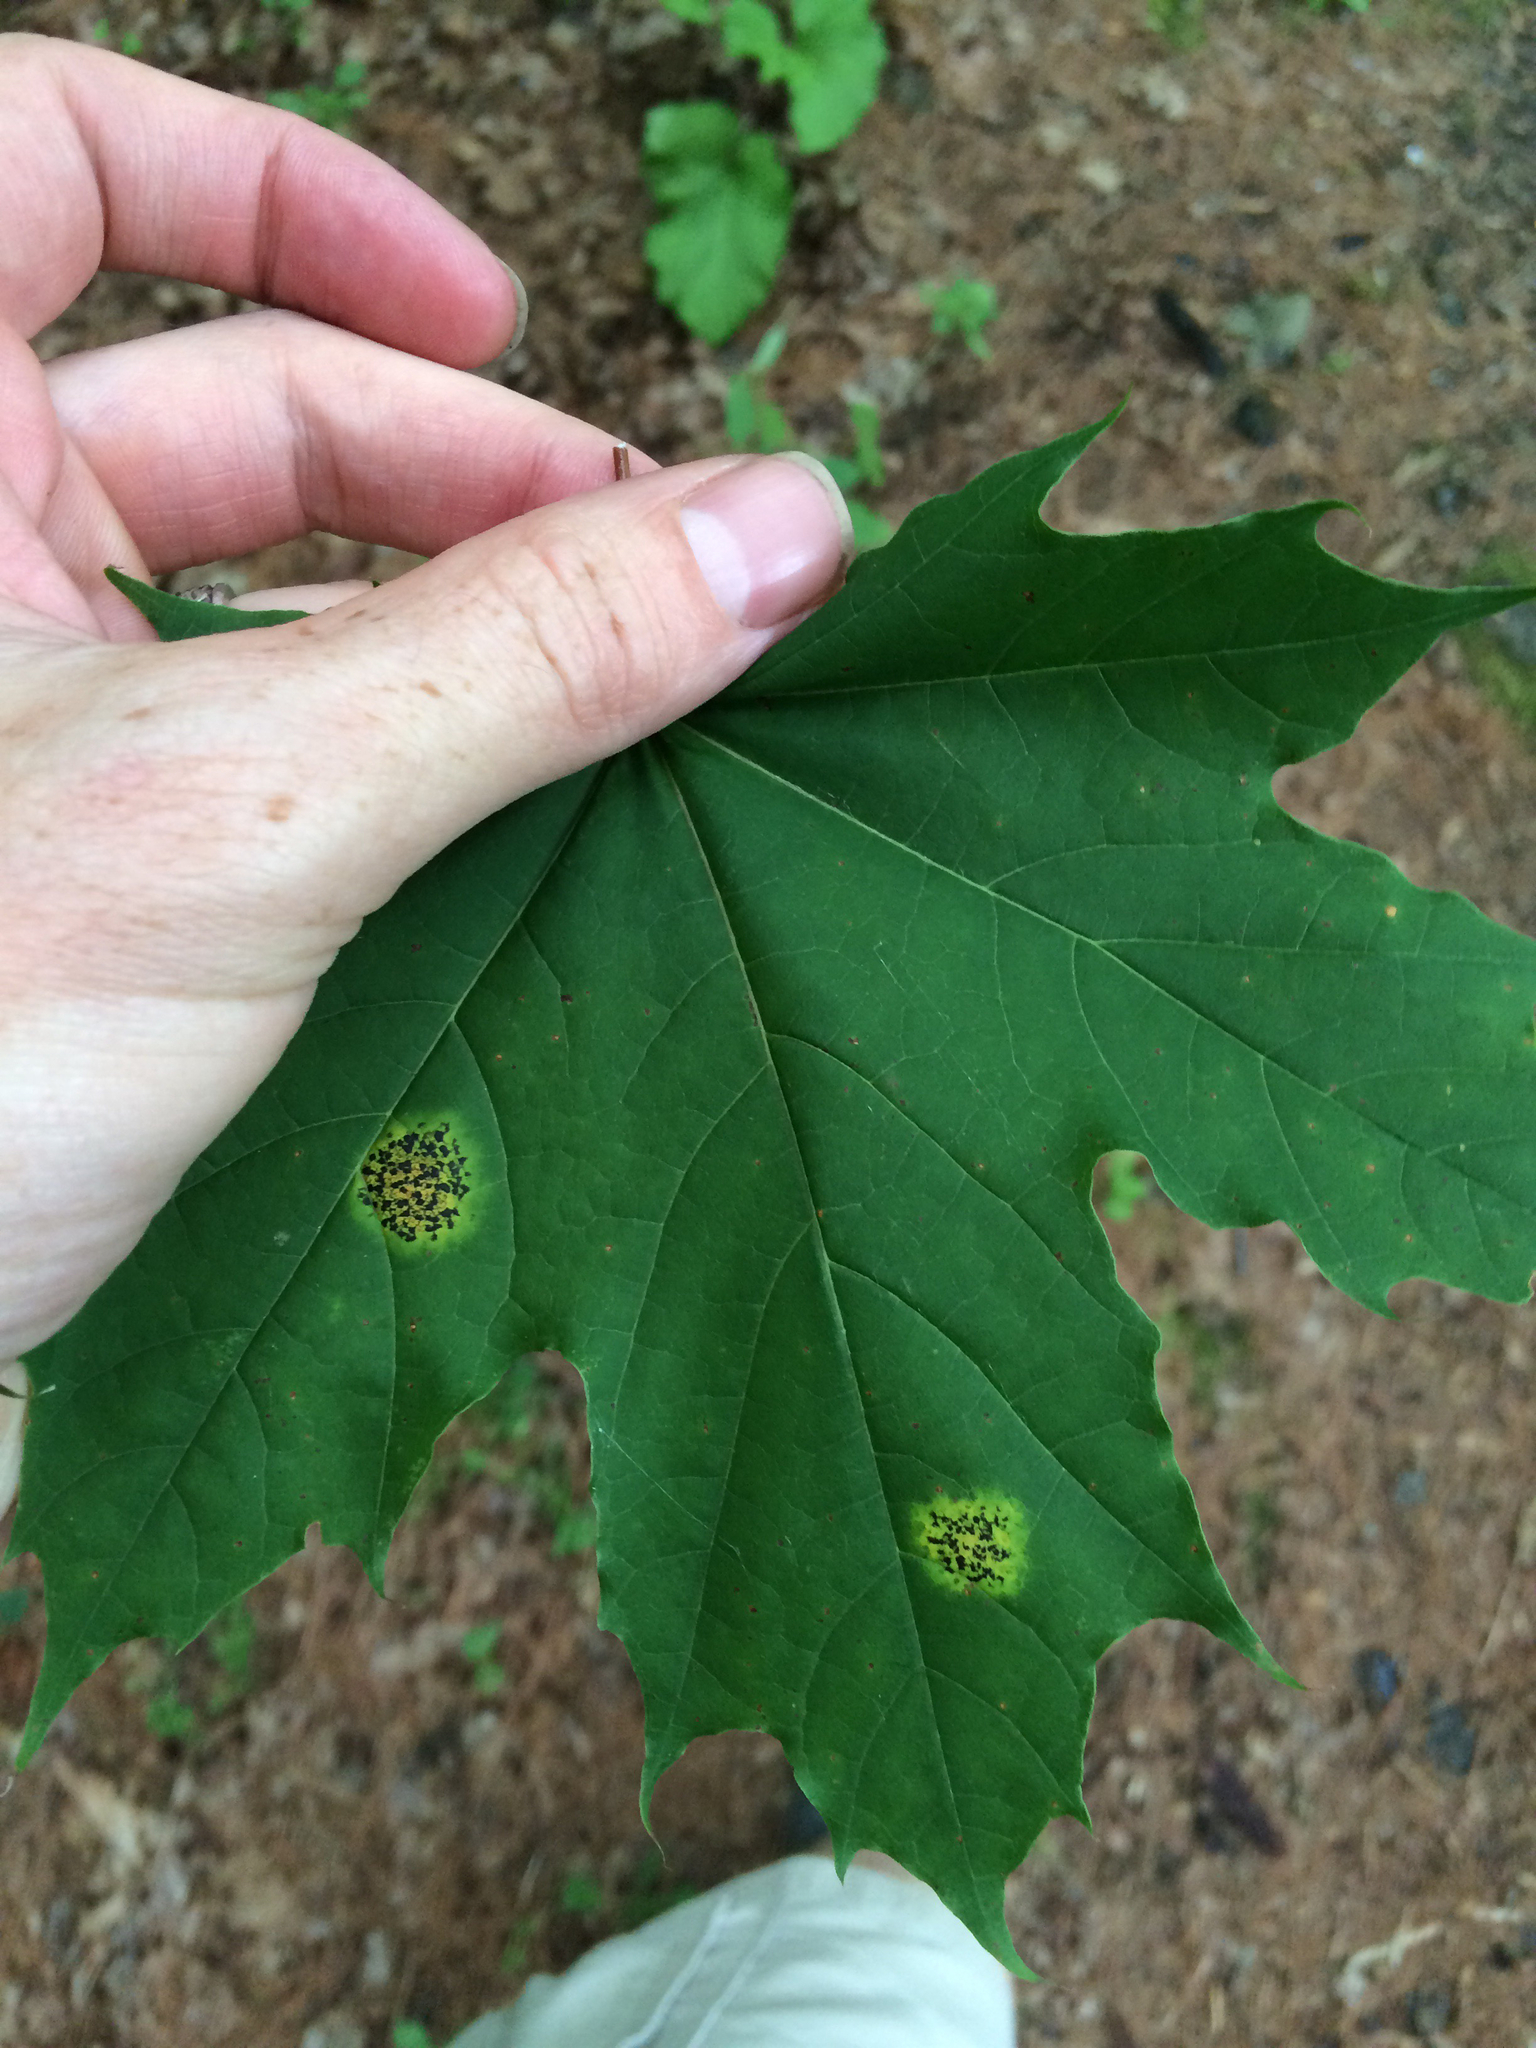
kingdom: Fungi
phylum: Ascomycota
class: Leotiomycetes
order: Rhytismatales
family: Rhytismataceae
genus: Rhytisma
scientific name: Rhytisma acerinum
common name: European tar spot
